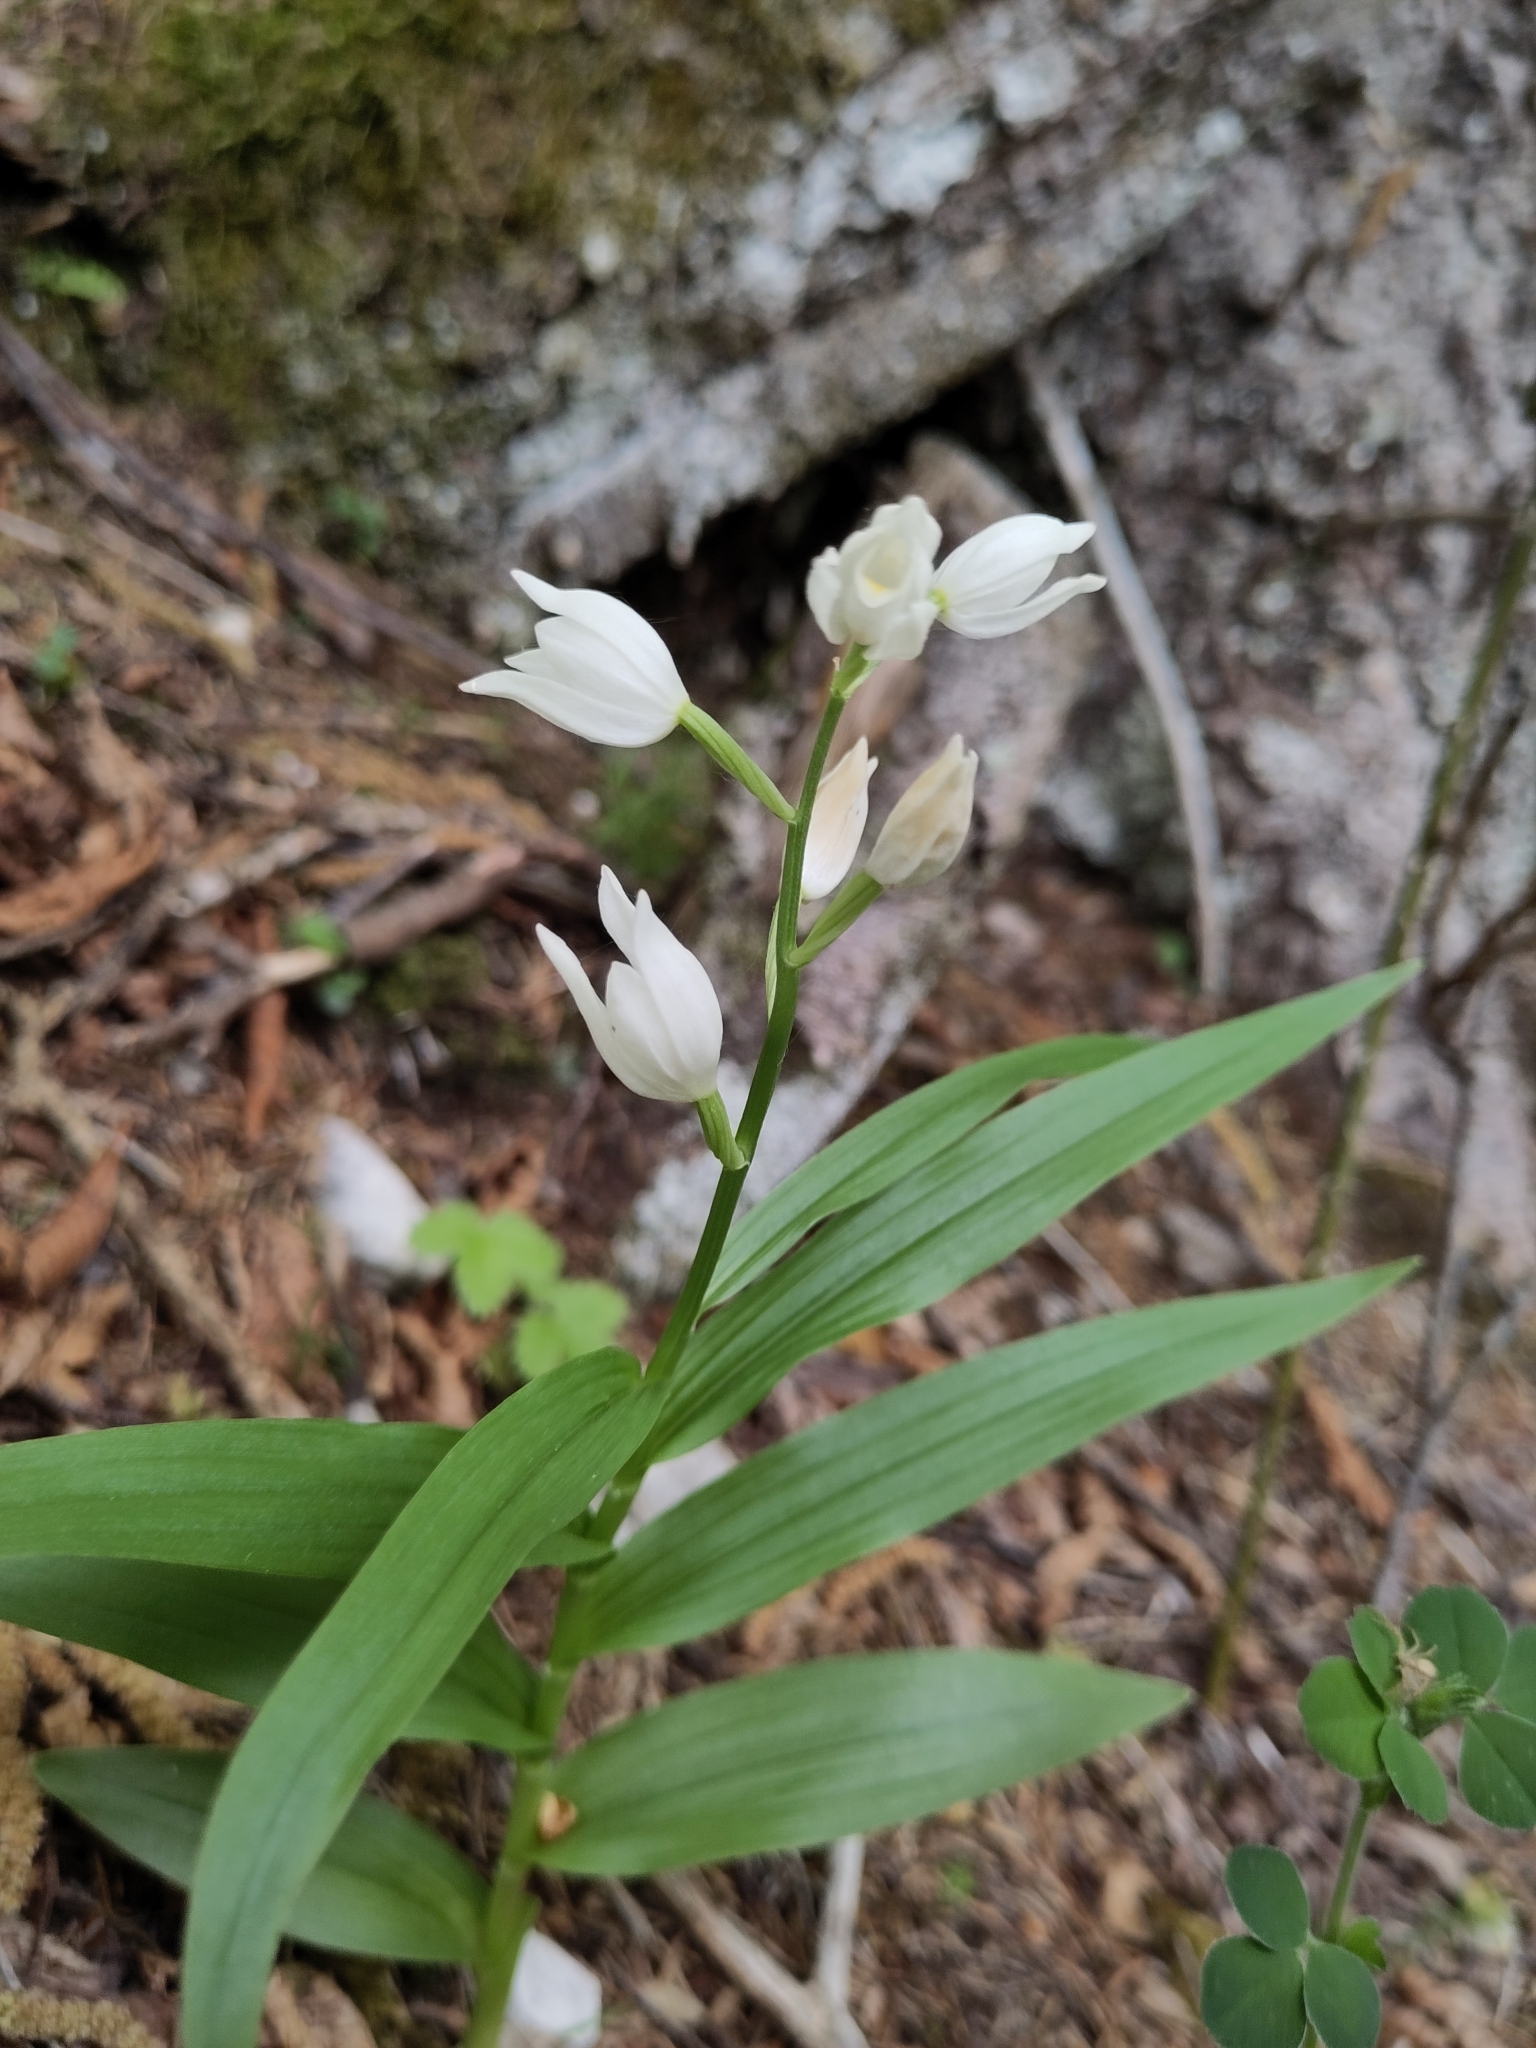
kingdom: Plantae
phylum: Tracheophyta
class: Liliopsida
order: Asparagales
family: Orchidaceae
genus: Cephalanthera
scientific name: Cephalanthera longifolia
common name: Narrow-leaved helleborine
